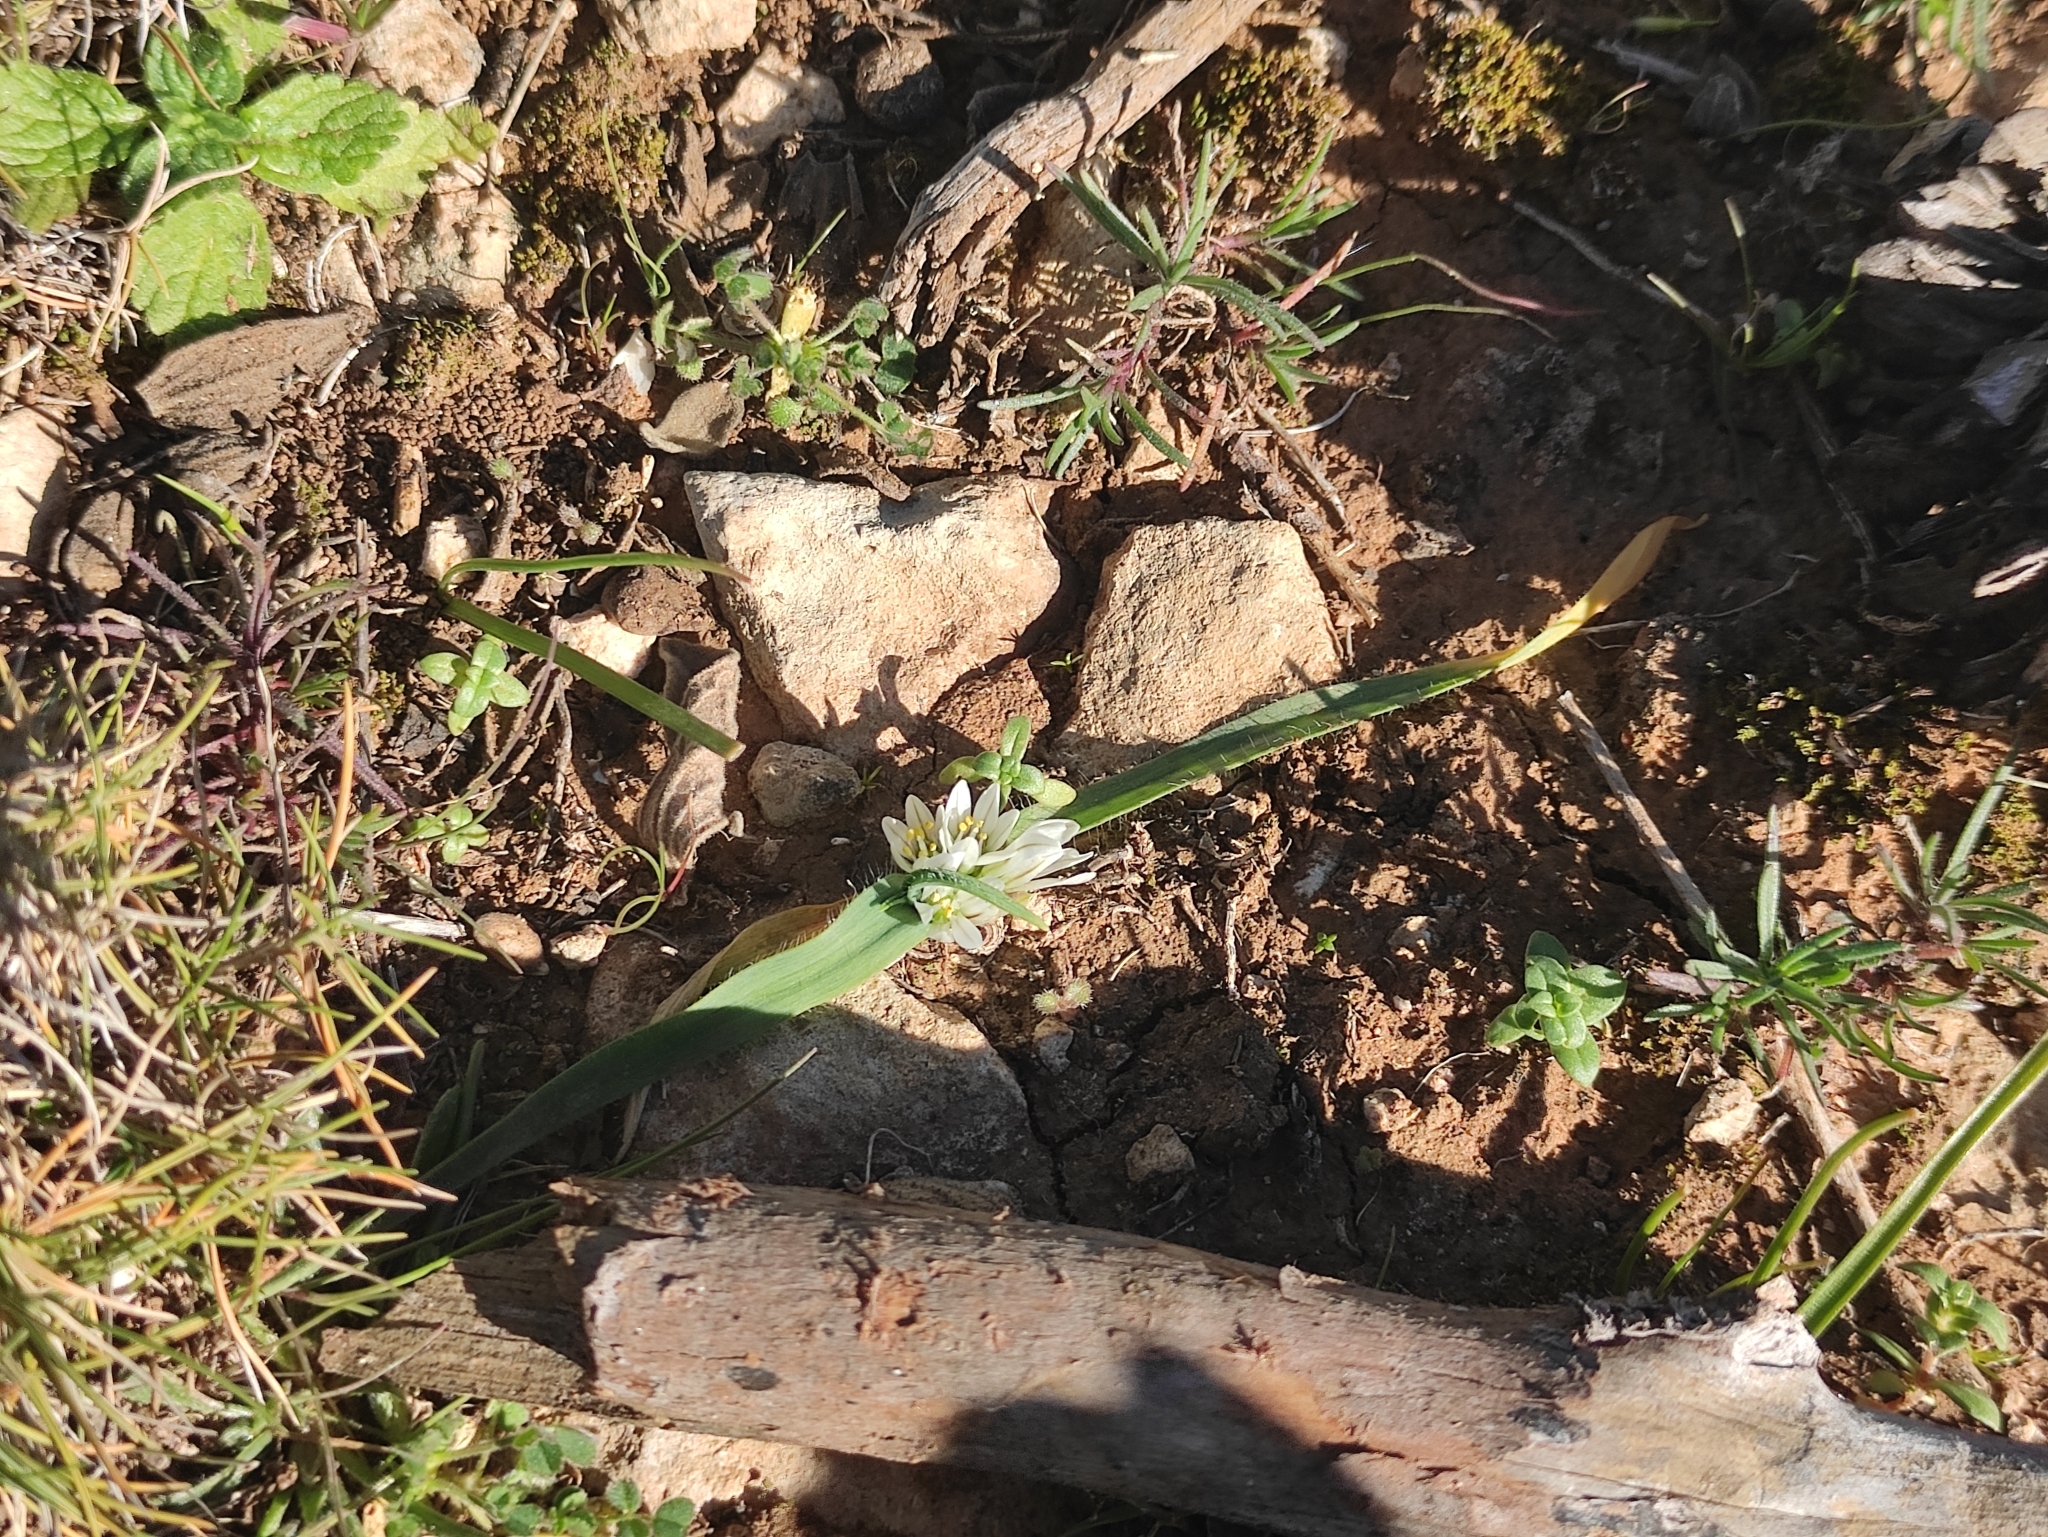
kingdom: Plantae
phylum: Tracheophyta
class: Liliopsida
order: Asparagales
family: Amaryllidaceae
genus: Allium
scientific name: Allium chamaemoly
